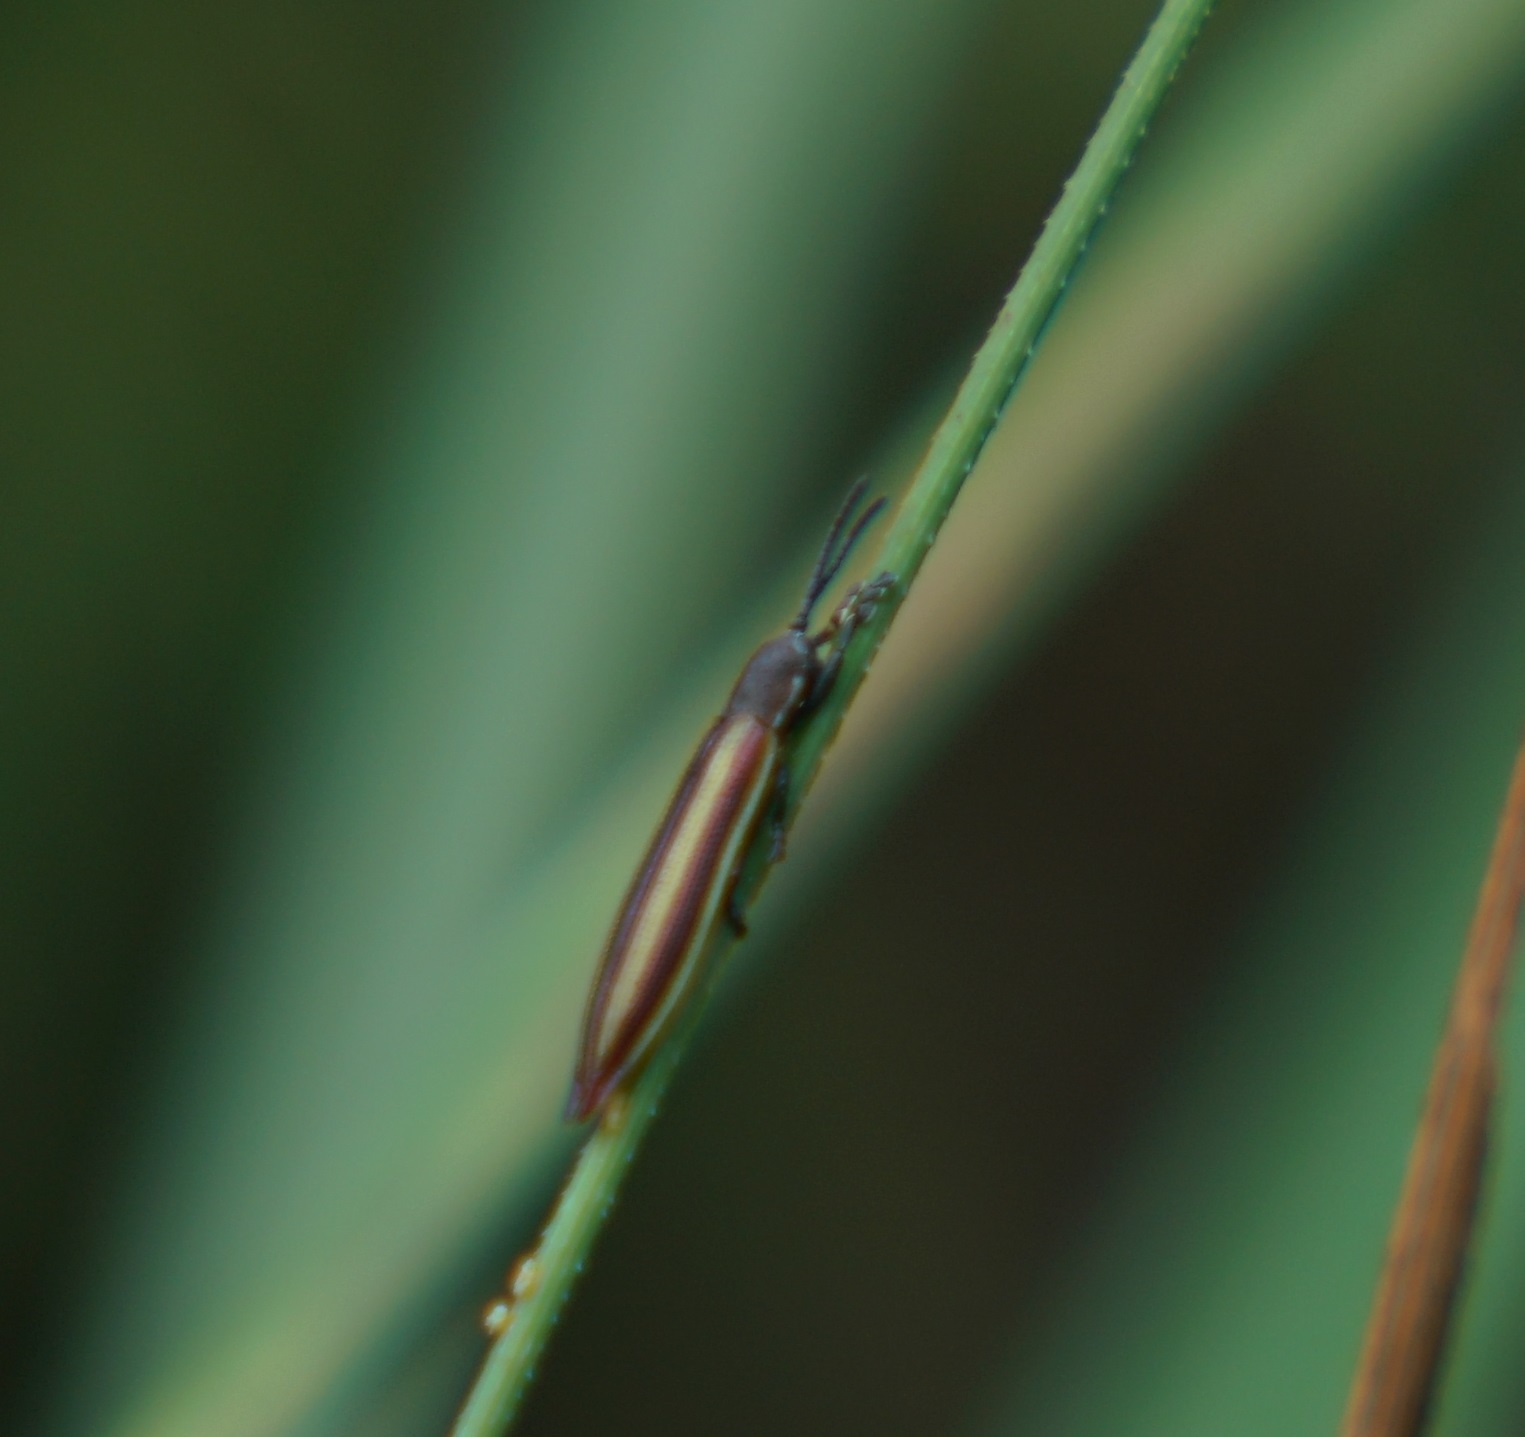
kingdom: Animalia
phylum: Arthropoda
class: Insecta
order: Coleoptera
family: Chrysomelidae
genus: Eurispa
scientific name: Eurispa vittata
